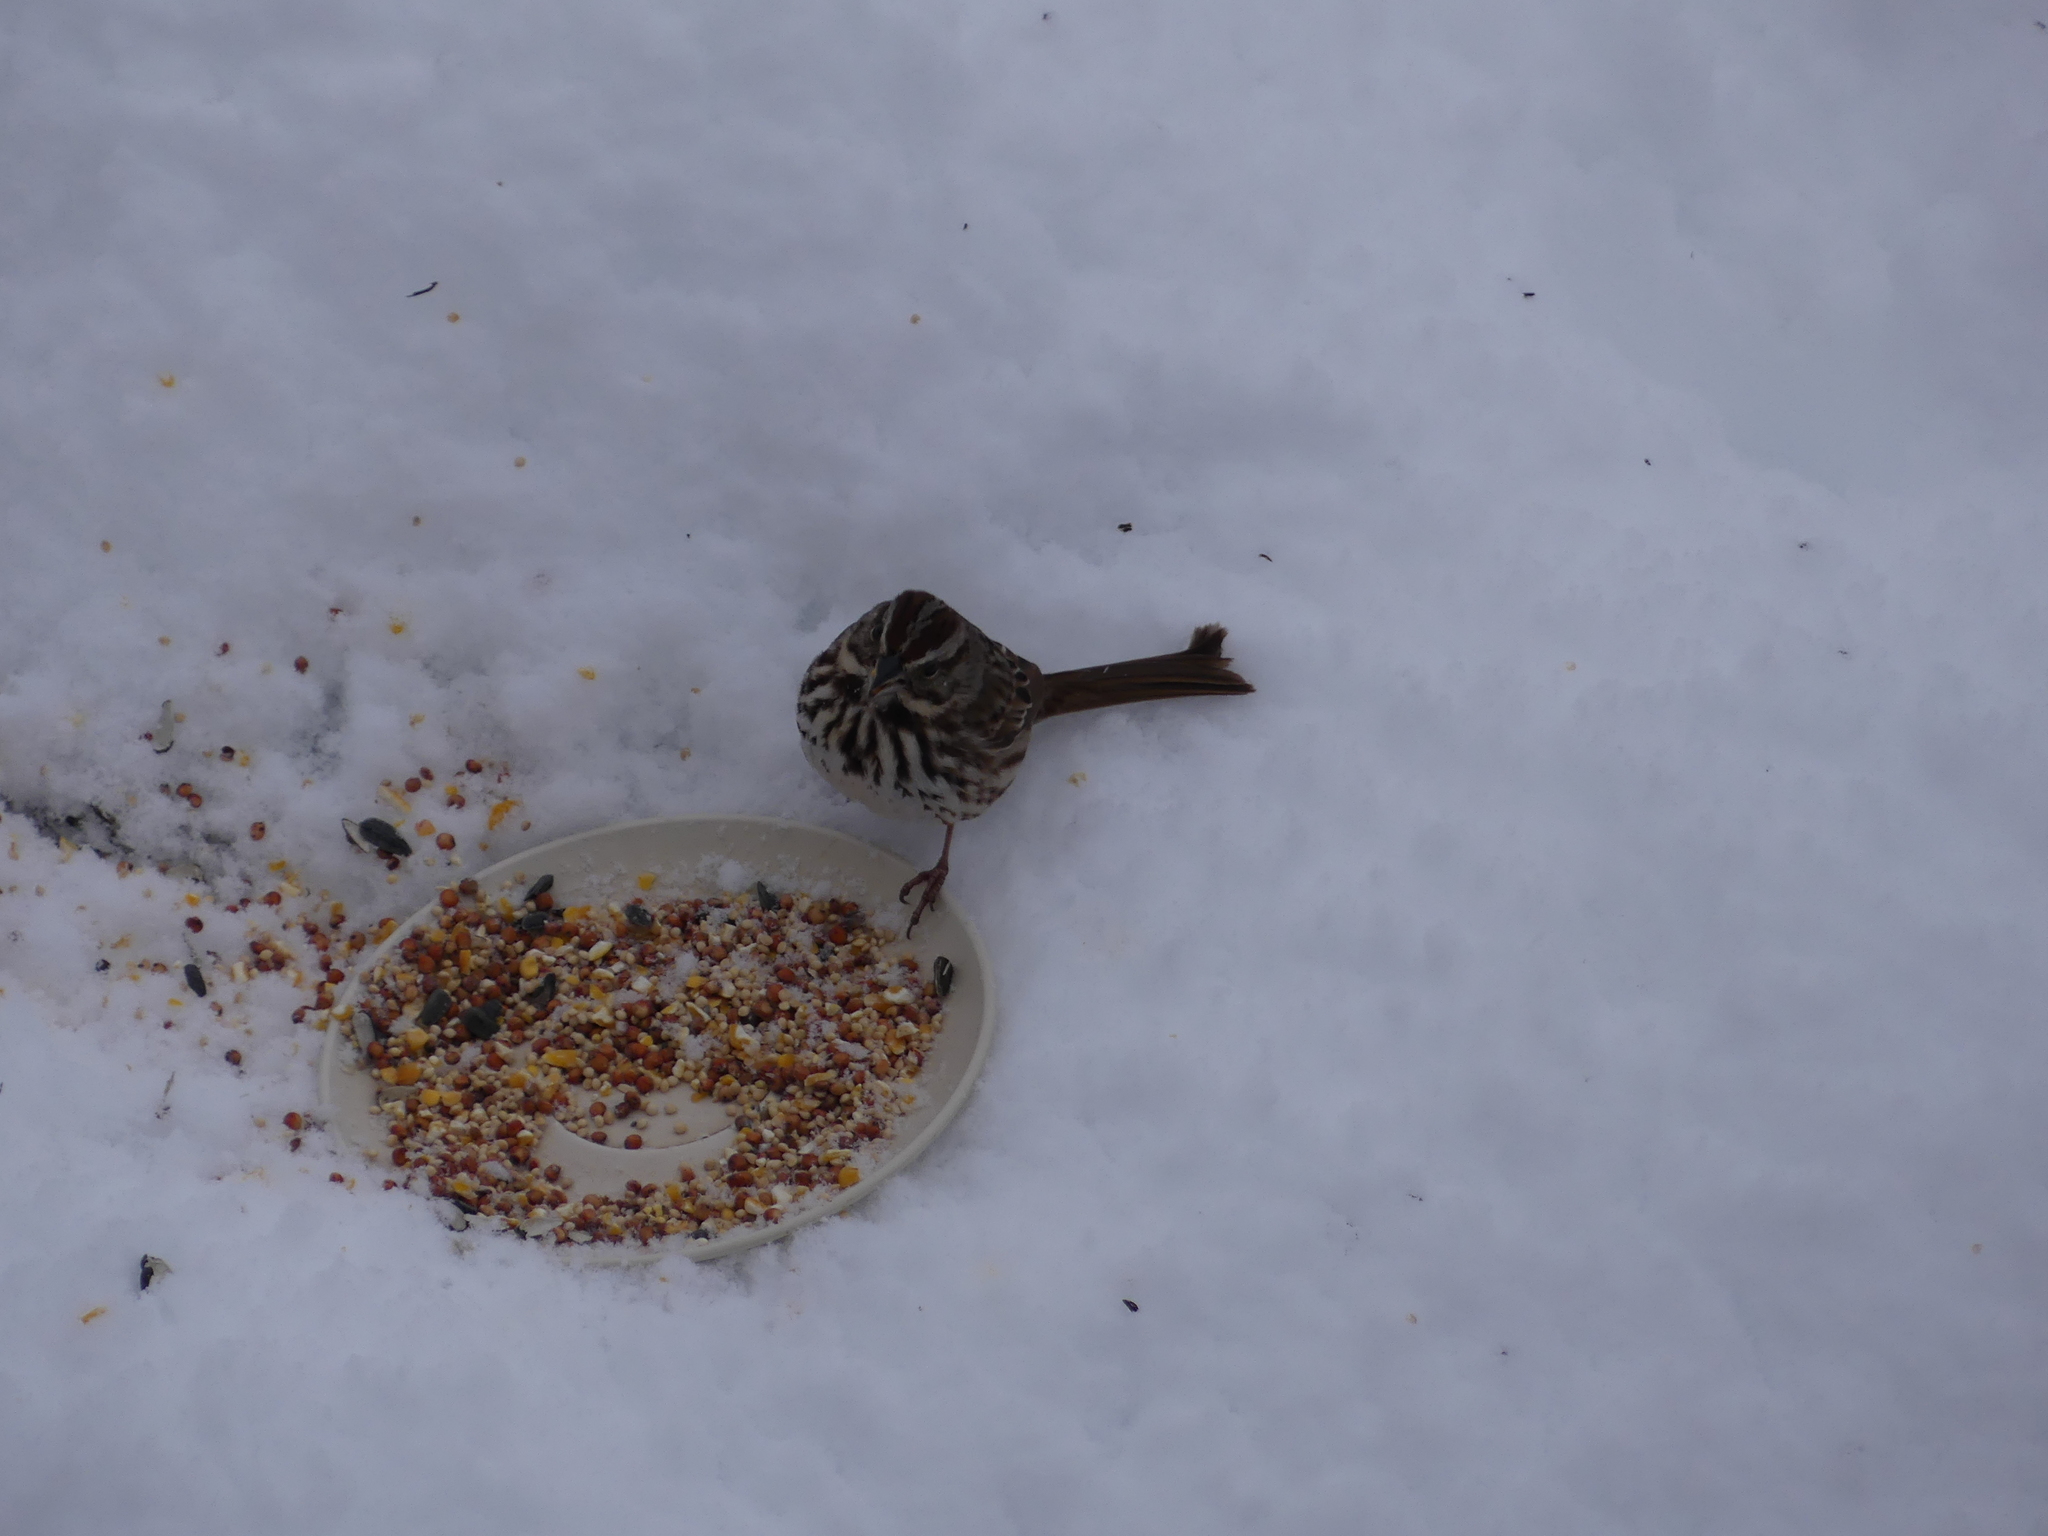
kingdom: Animalia
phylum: Chordata
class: Aves
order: Passeriformes
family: Passerellidae
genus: Melospiza
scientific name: Melospiza melodia
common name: Song sparrow
